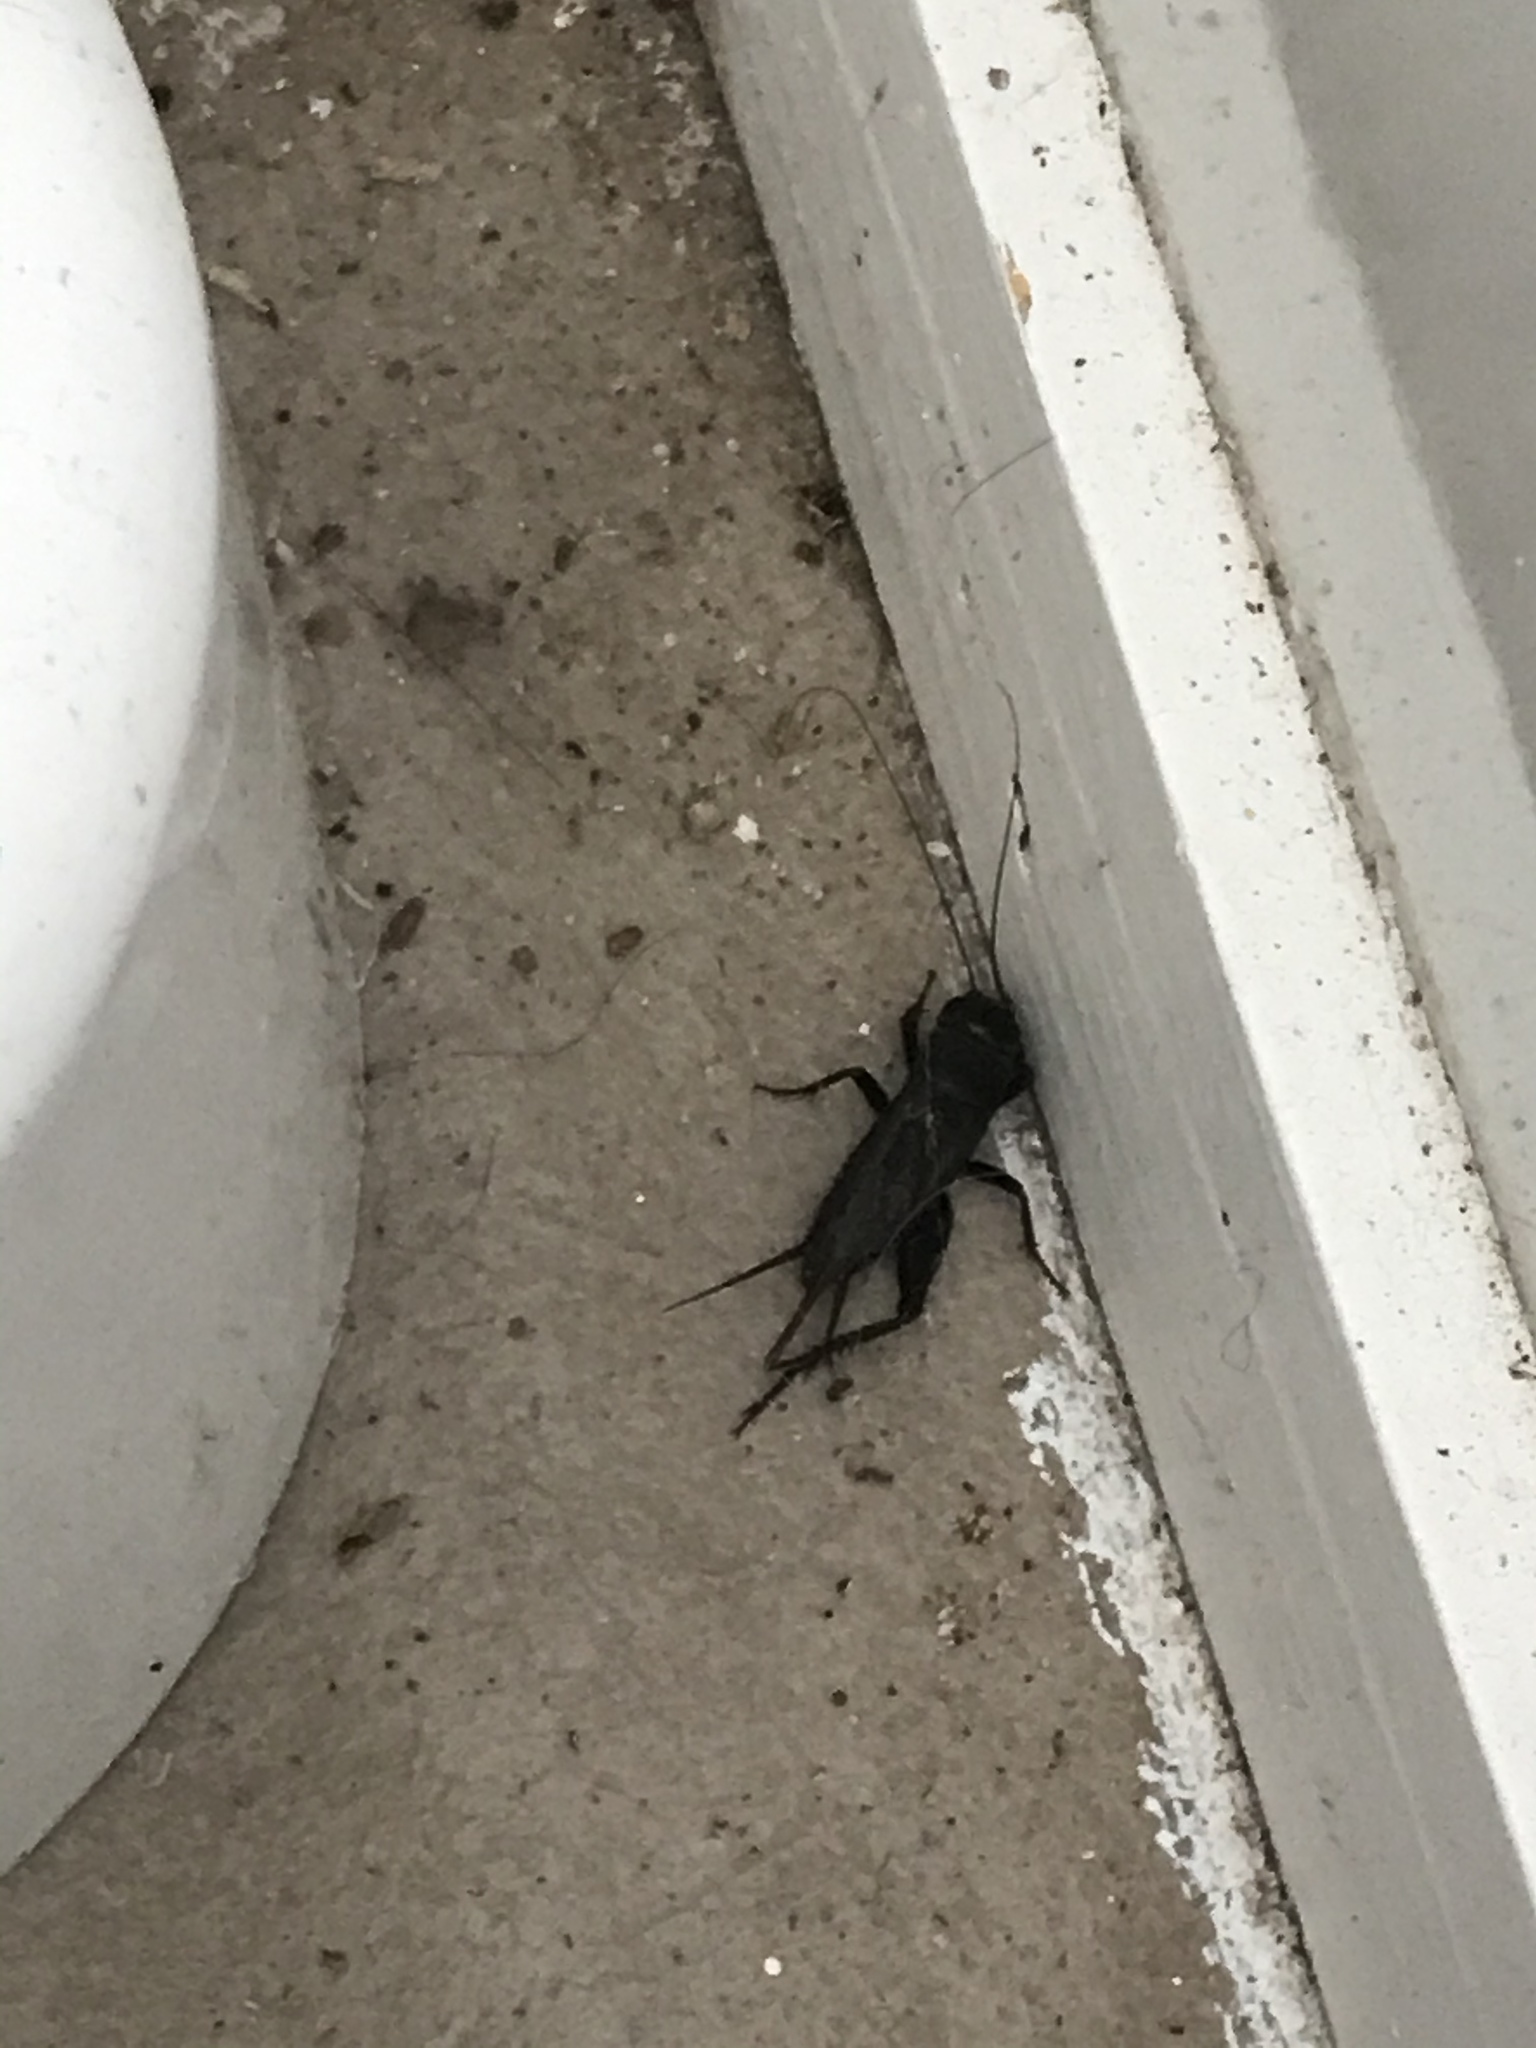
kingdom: Animalia
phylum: Arthropoda
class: Insecta
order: Orthoptera
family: Gryllidae
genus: Teleogryllus
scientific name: Teleogryllus commodus
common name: Black field cricket
